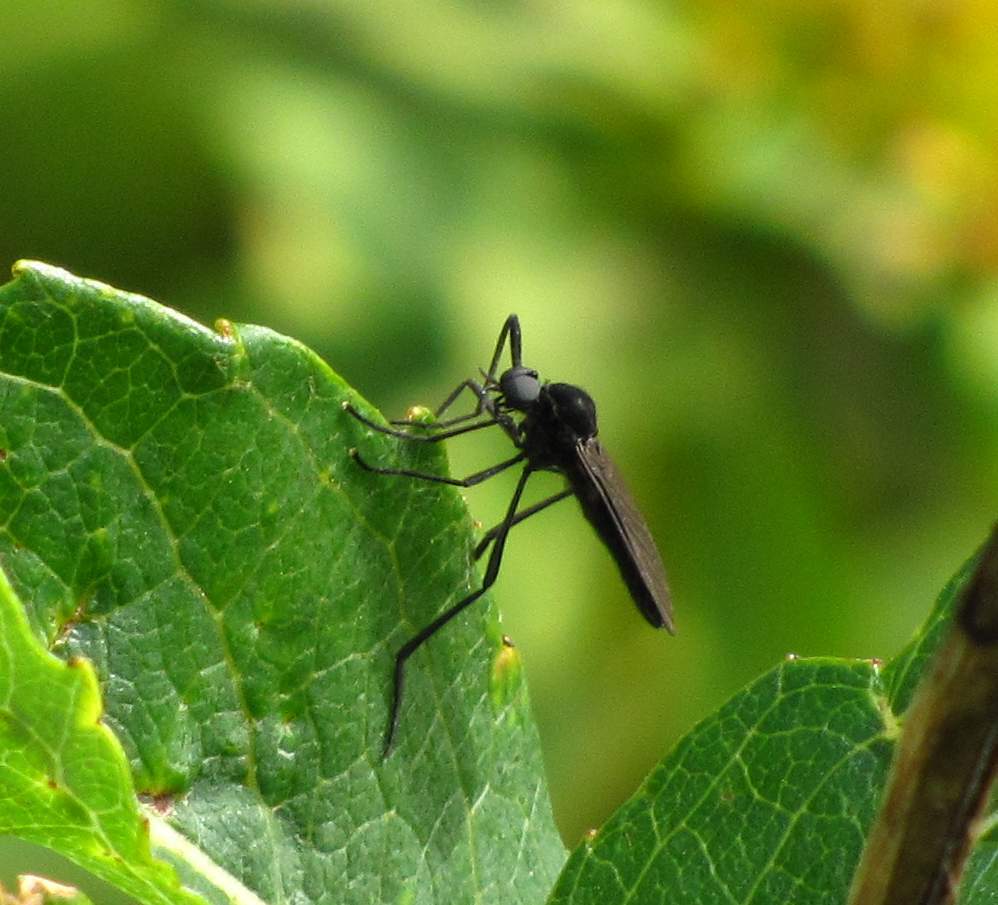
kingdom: Animalia
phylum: Arthropoda
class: Insecta
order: Diptera
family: Bibionidae
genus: Penthetria
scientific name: Penthetria heteroptera
